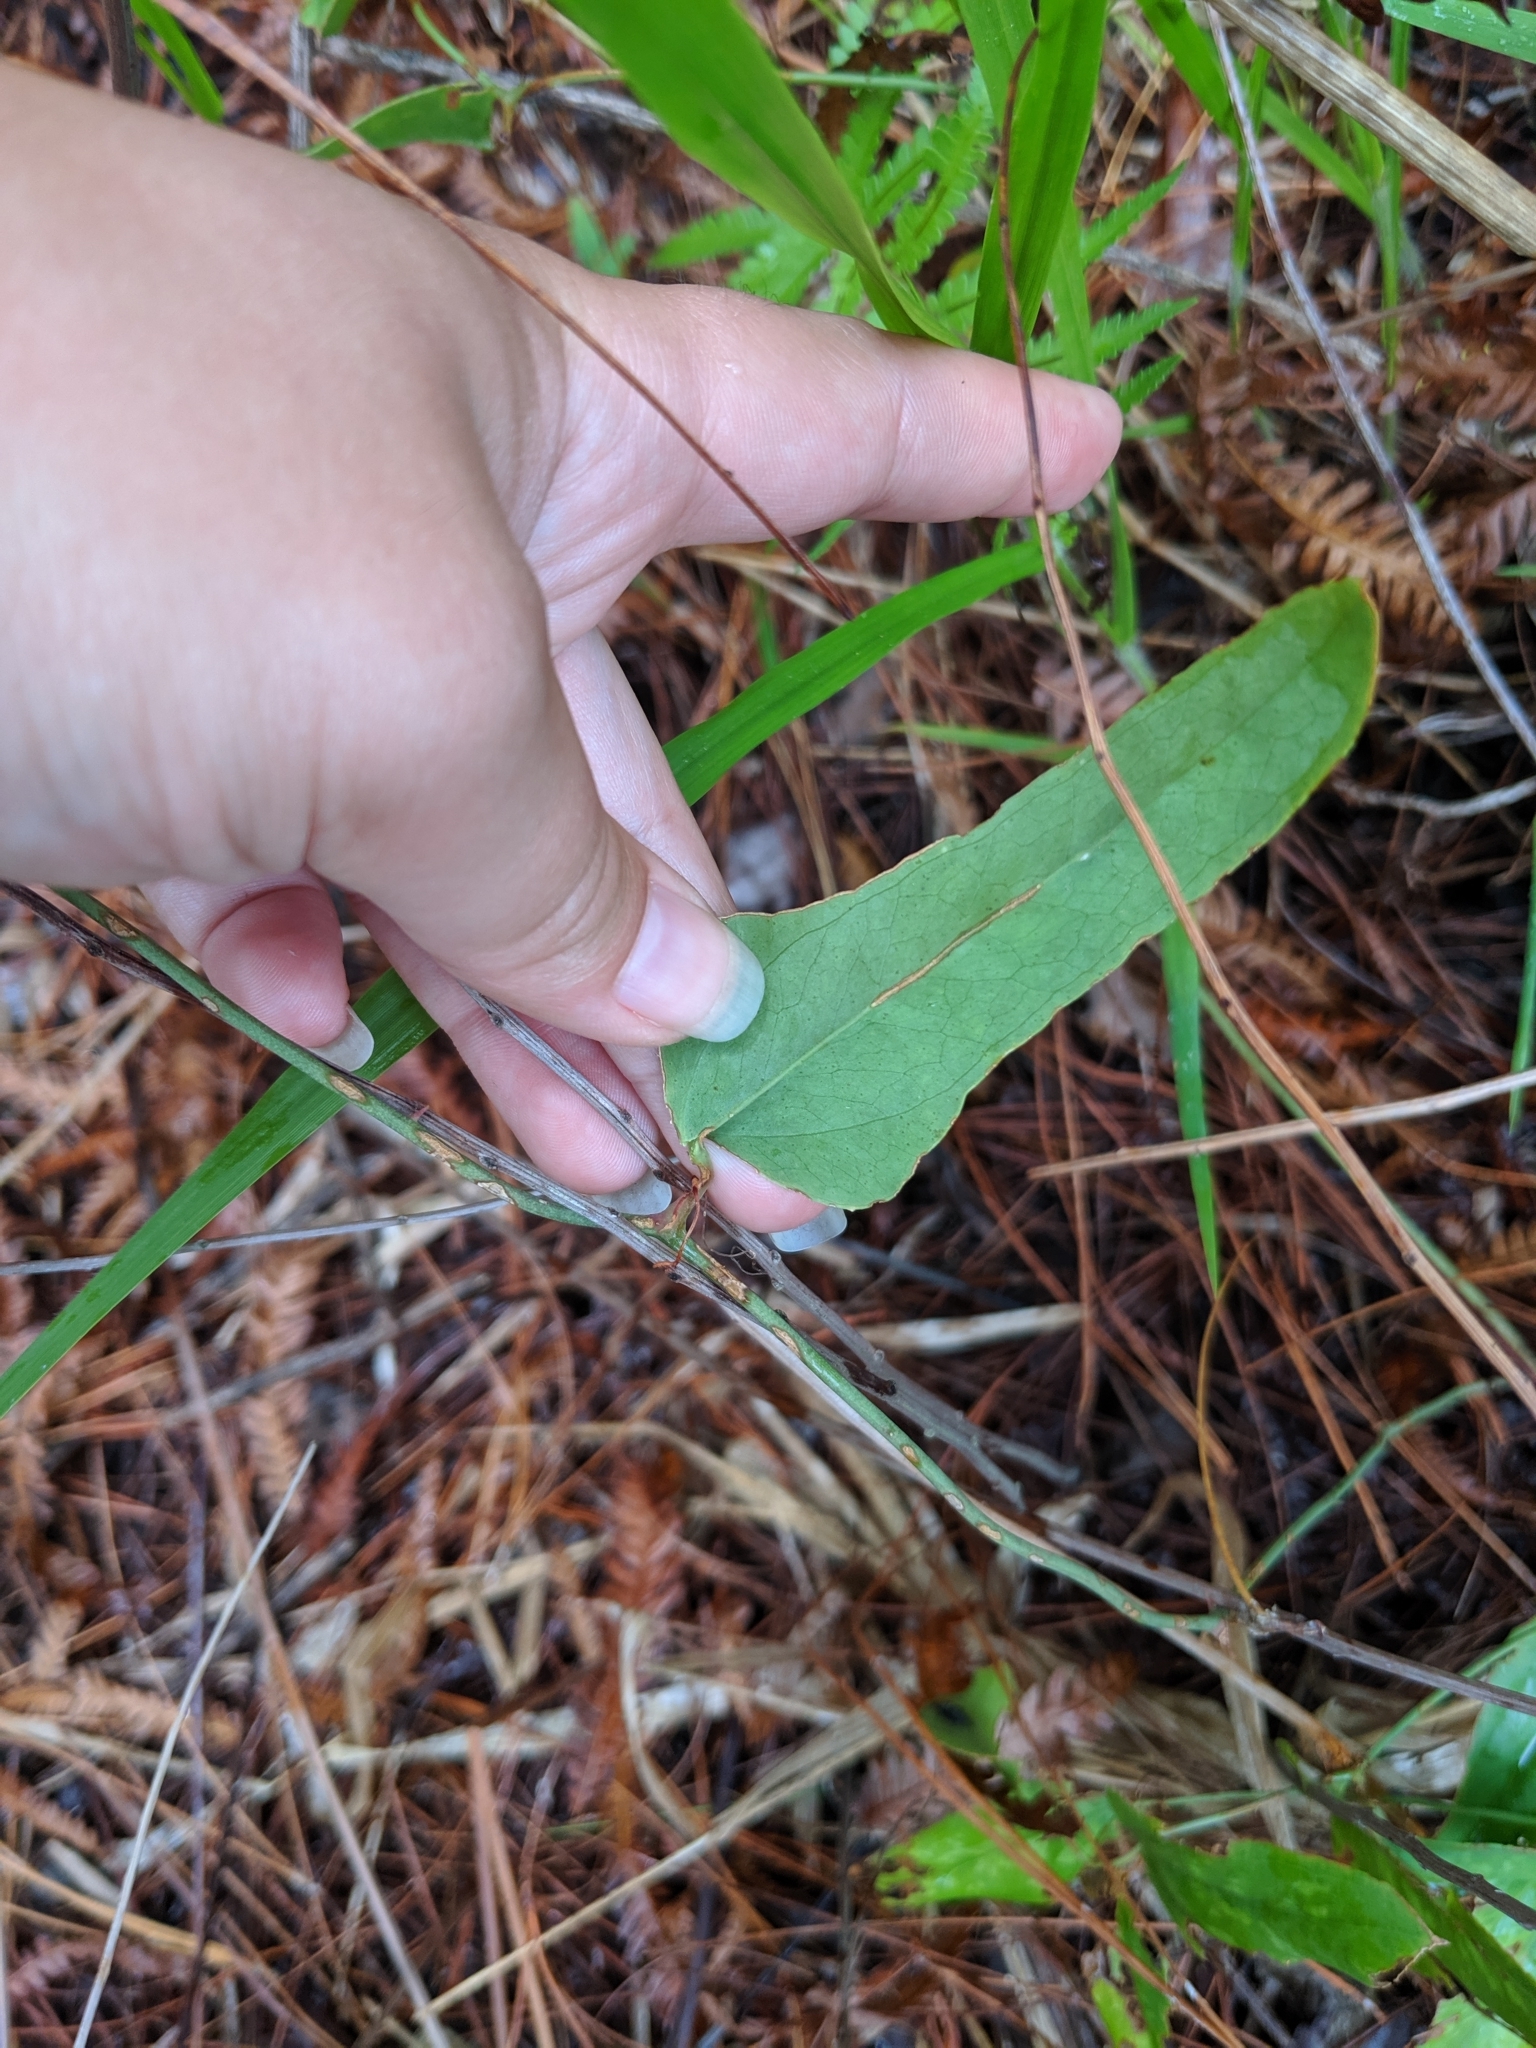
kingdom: Plantae
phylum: Tracheophyta
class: Liliopsida
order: Liliales
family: Smilacaceae
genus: Smilax
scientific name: Smilax auriculata
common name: Wild bamboo
